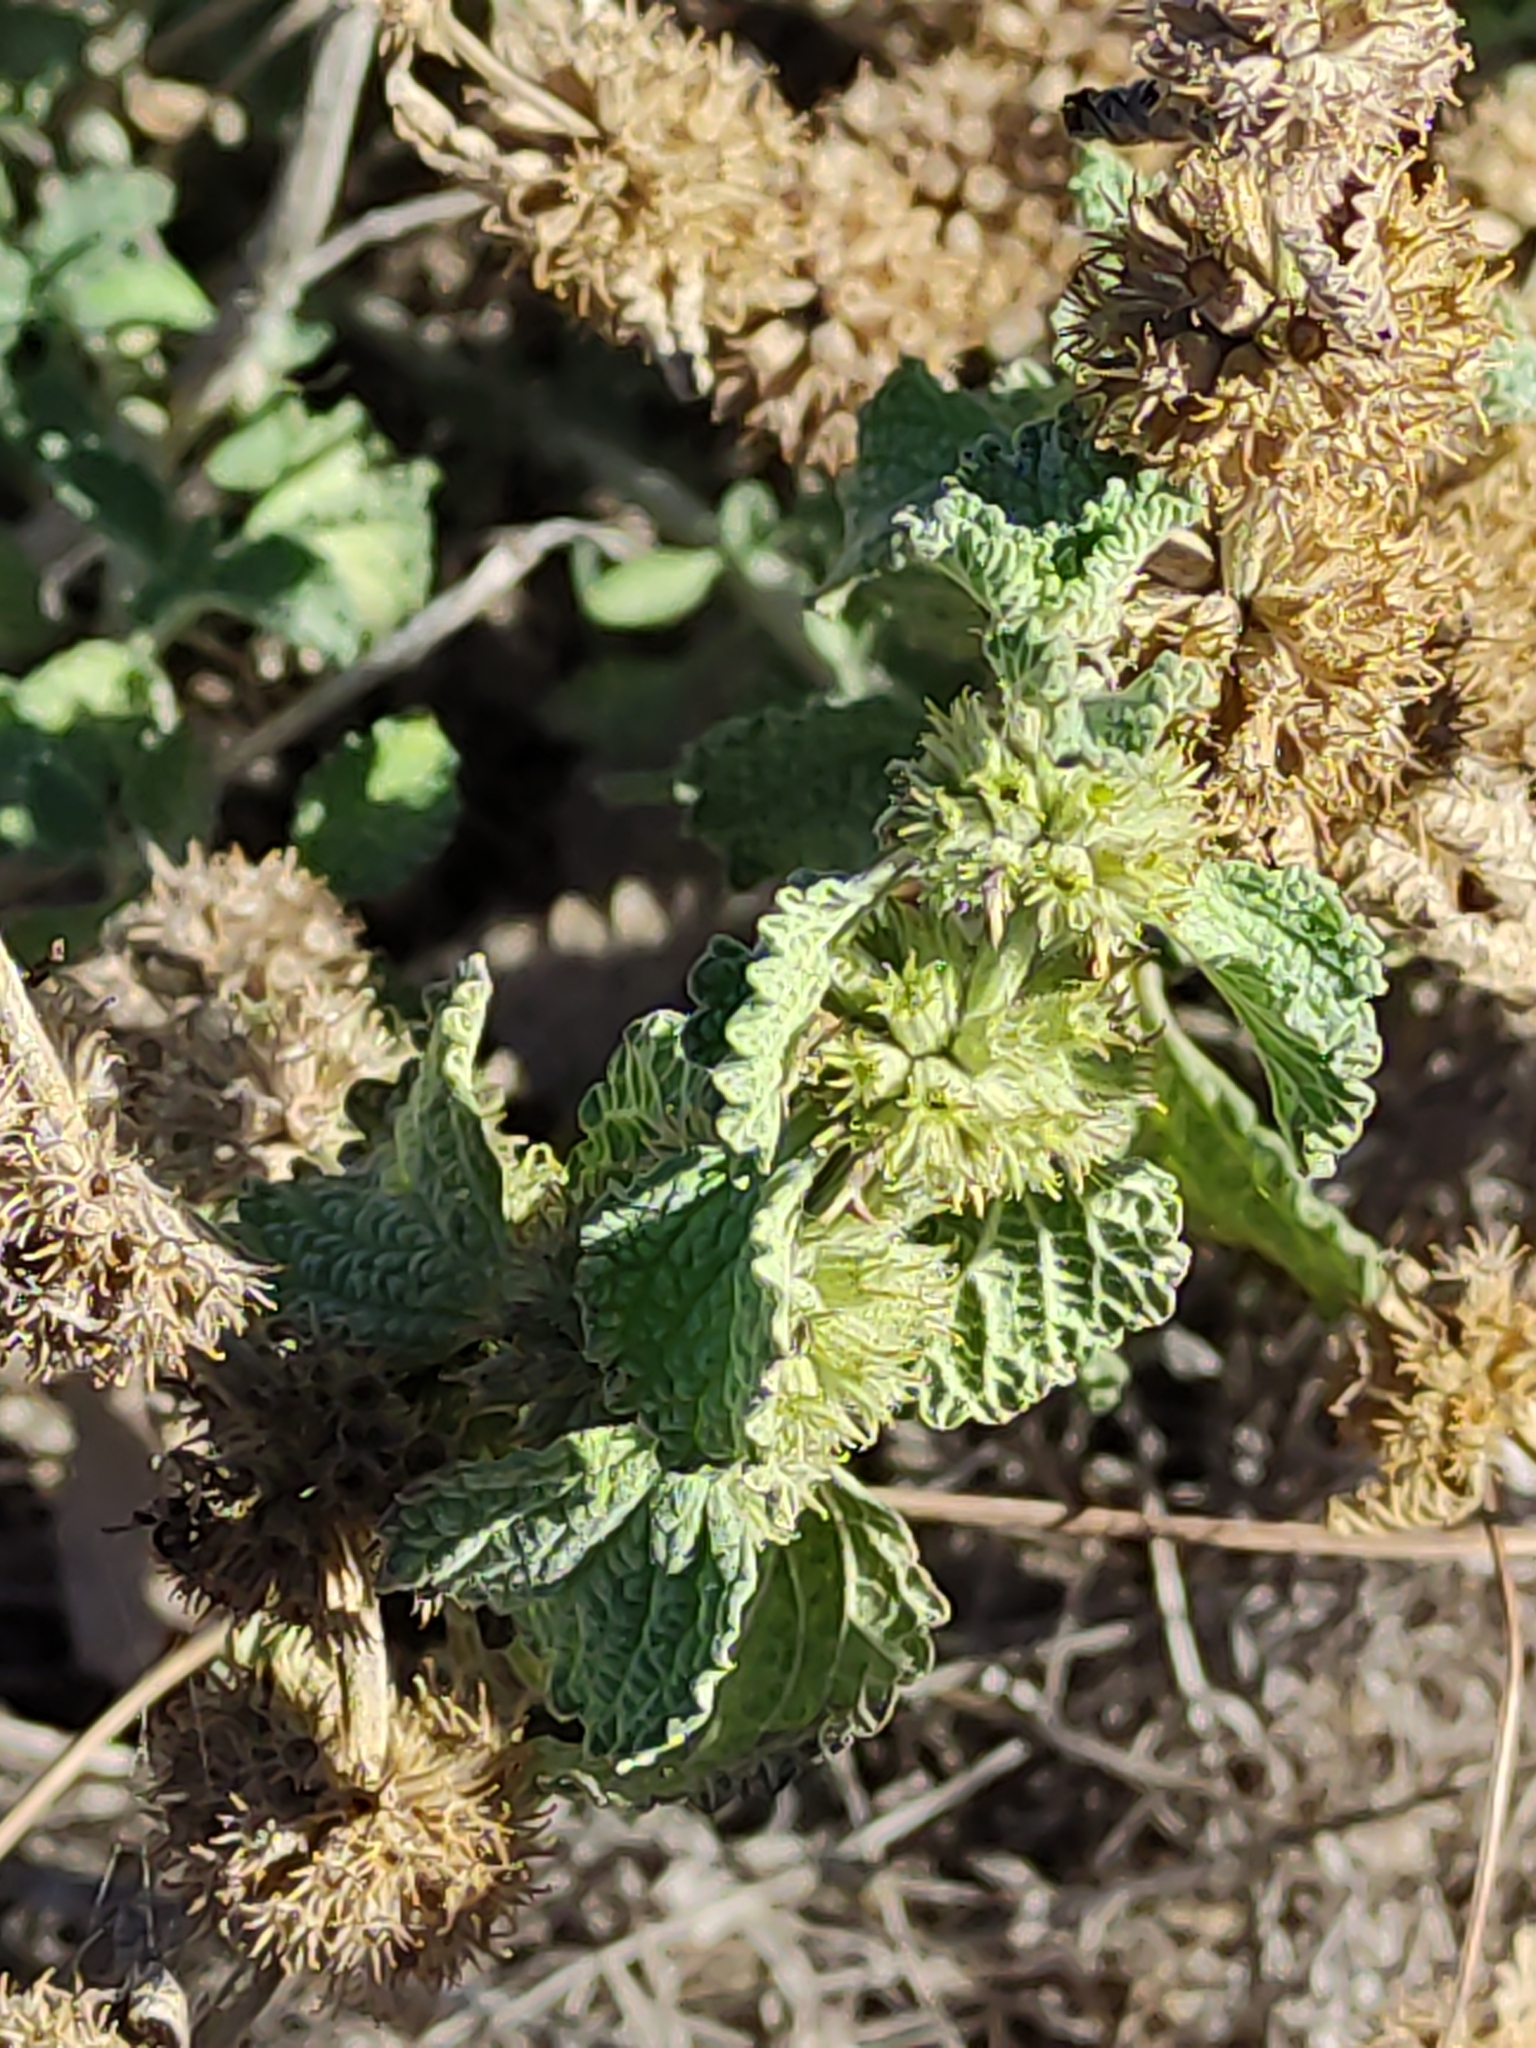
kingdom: Plantae
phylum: Tracheophyta
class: Magnoliopsida
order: Lamiales
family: Lamiaceae
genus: Marrubium
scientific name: Marrubium vulgare
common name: Horehound
